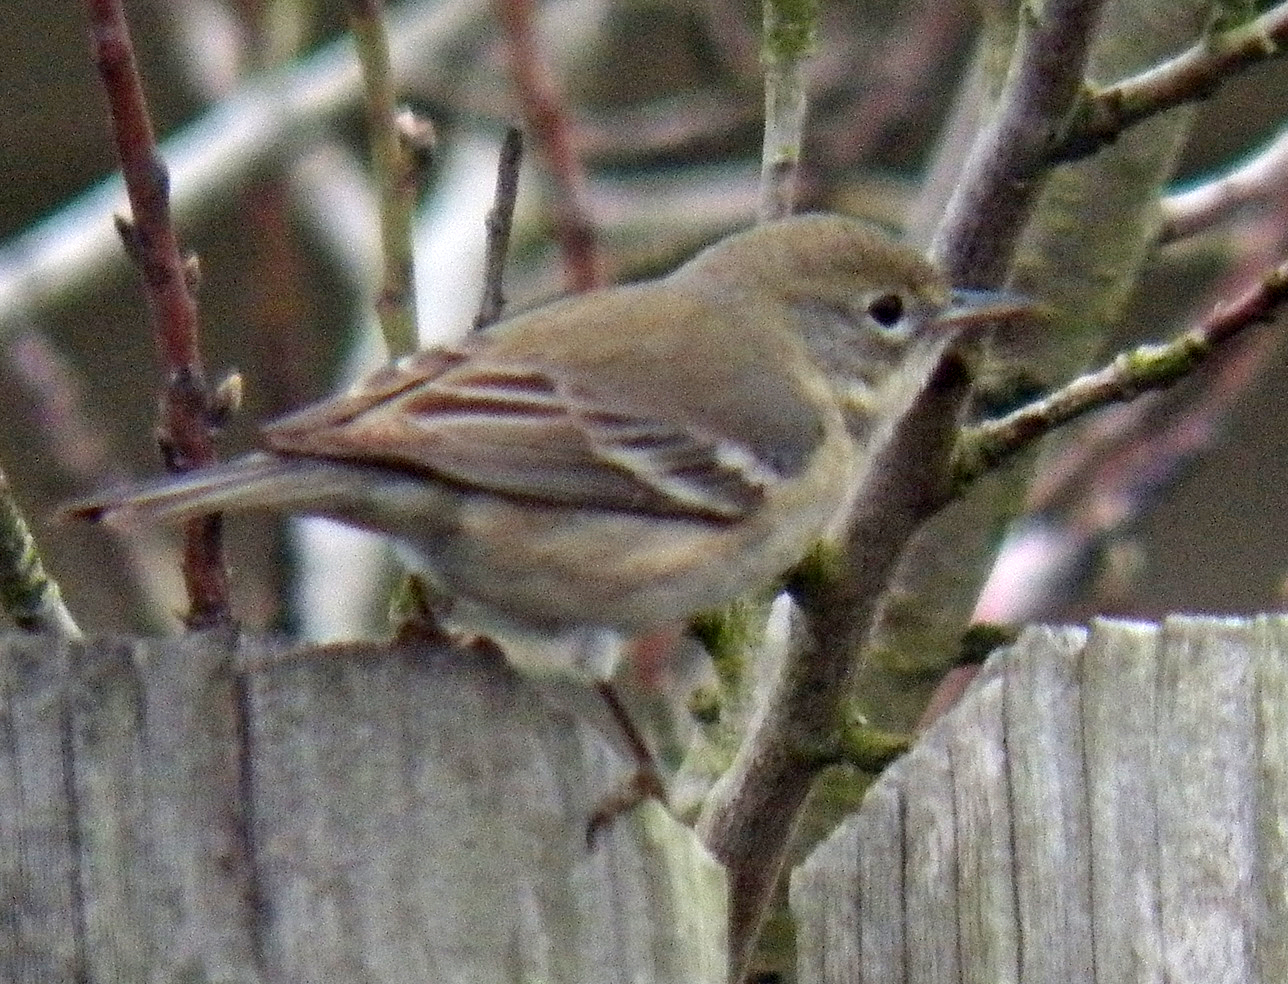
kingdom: Animalia
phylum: Chordata
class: Aves
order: Passeriformes
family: Parulidae
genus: Setophaga
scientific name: Setophaga pinus
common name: Pine warbler
